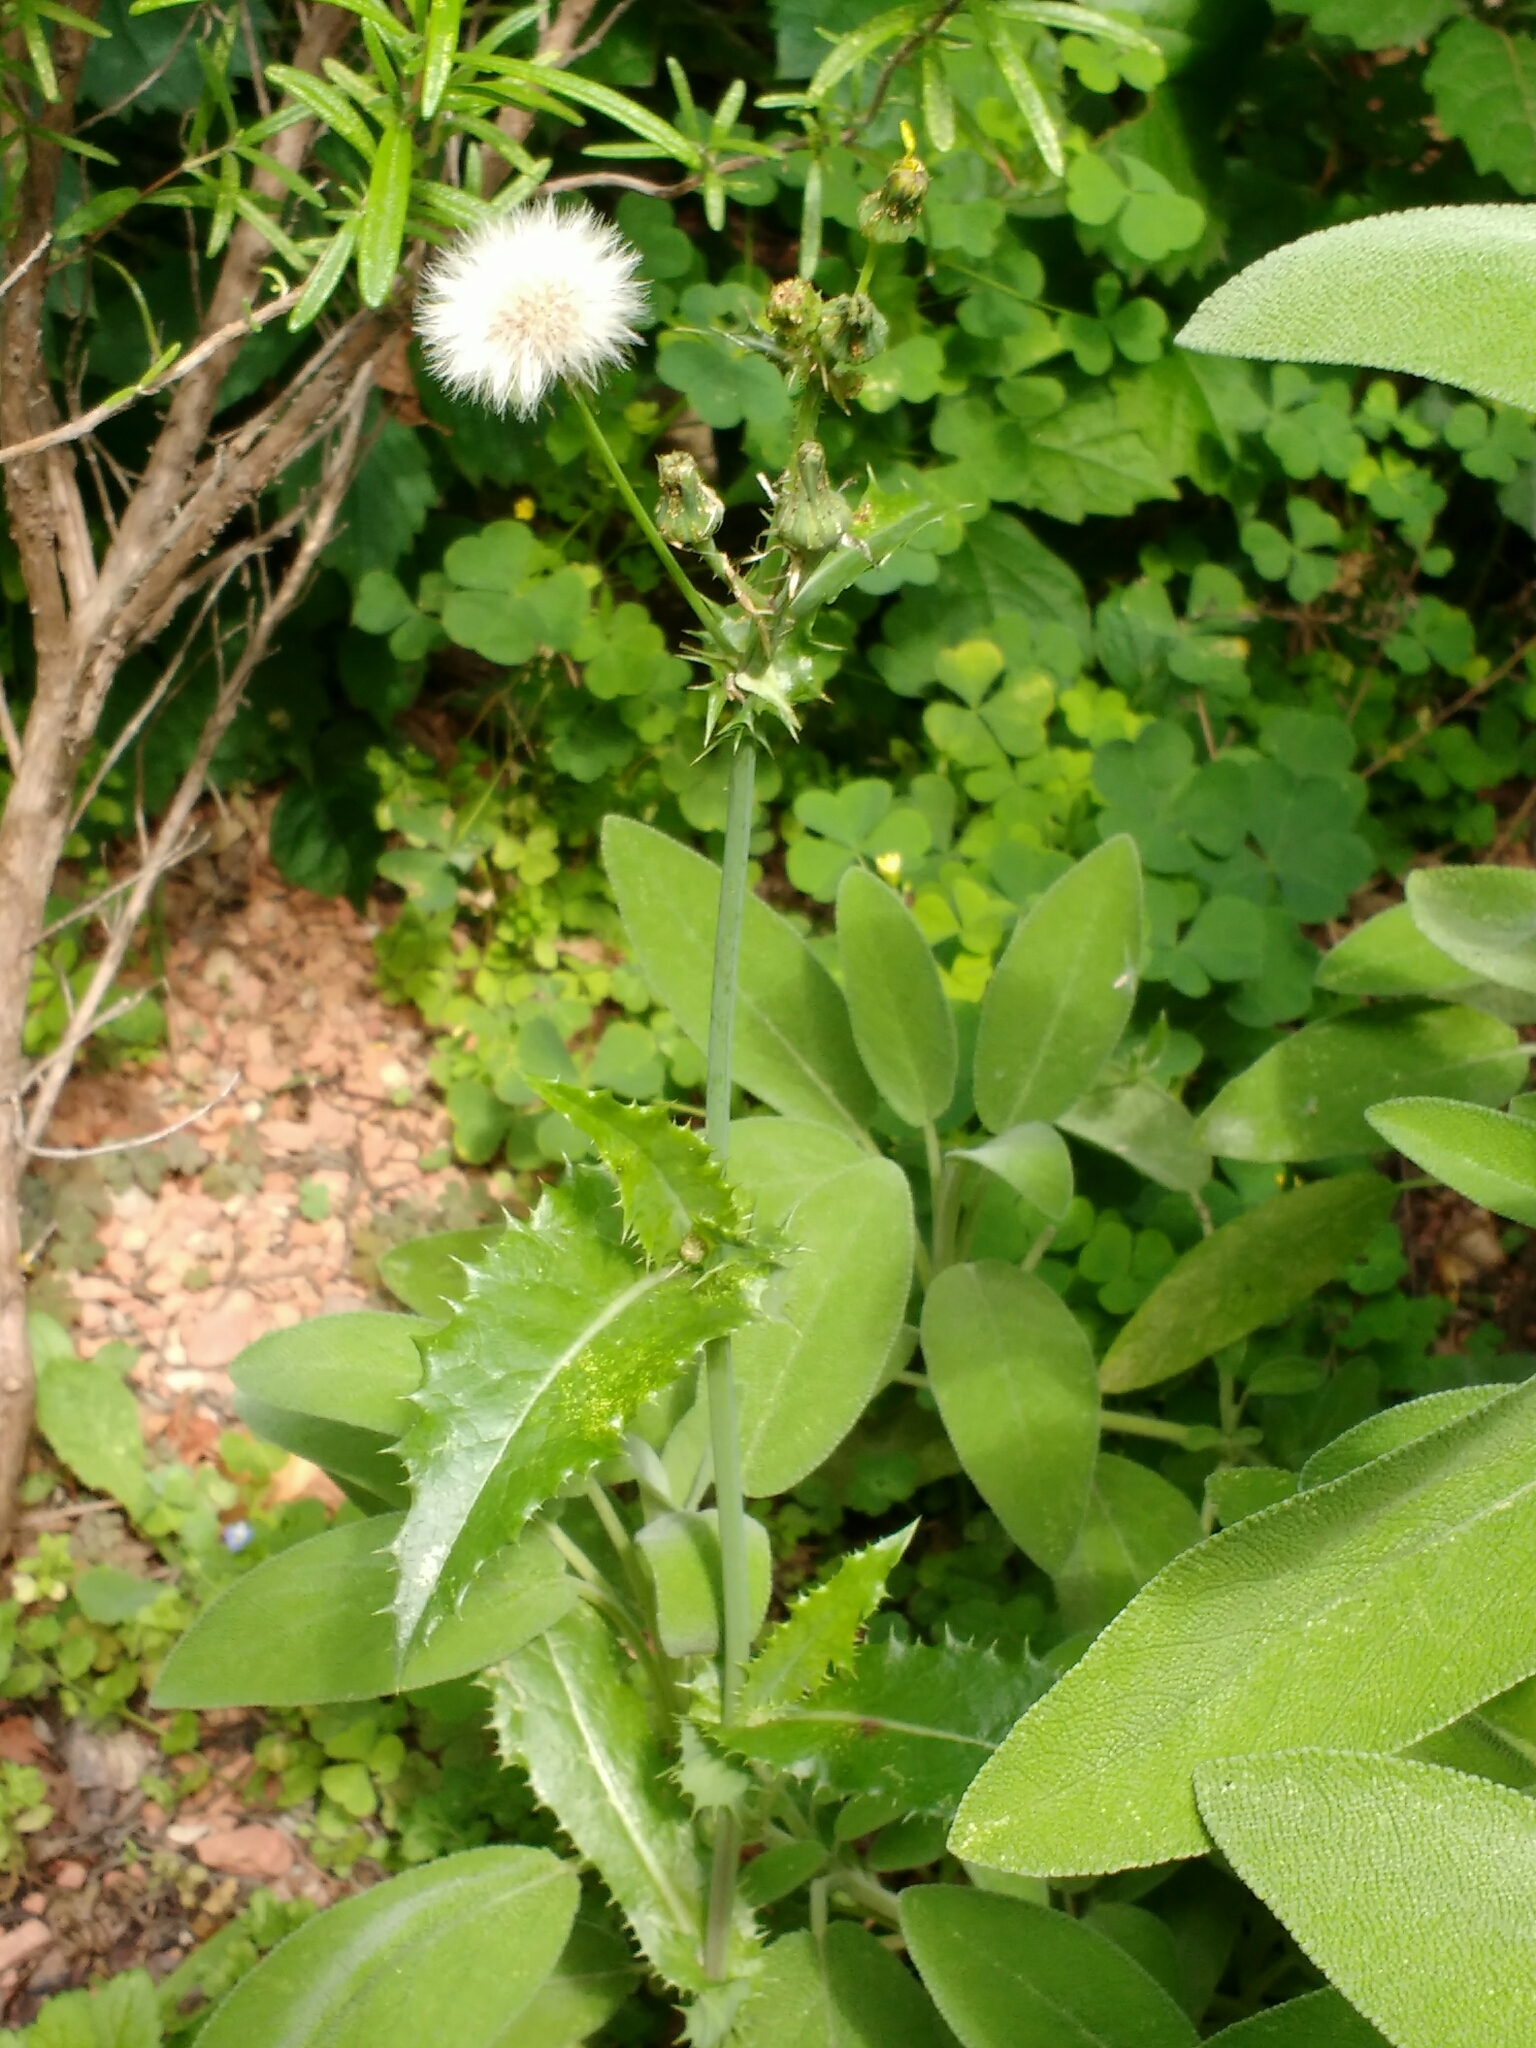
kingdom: Plantae
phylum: Tracheophyta
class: Magnoliopsida
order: Asterales
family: Asteraceae
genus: Sonchus
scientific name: Sonchus asper
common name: Prickly sow-thistle
